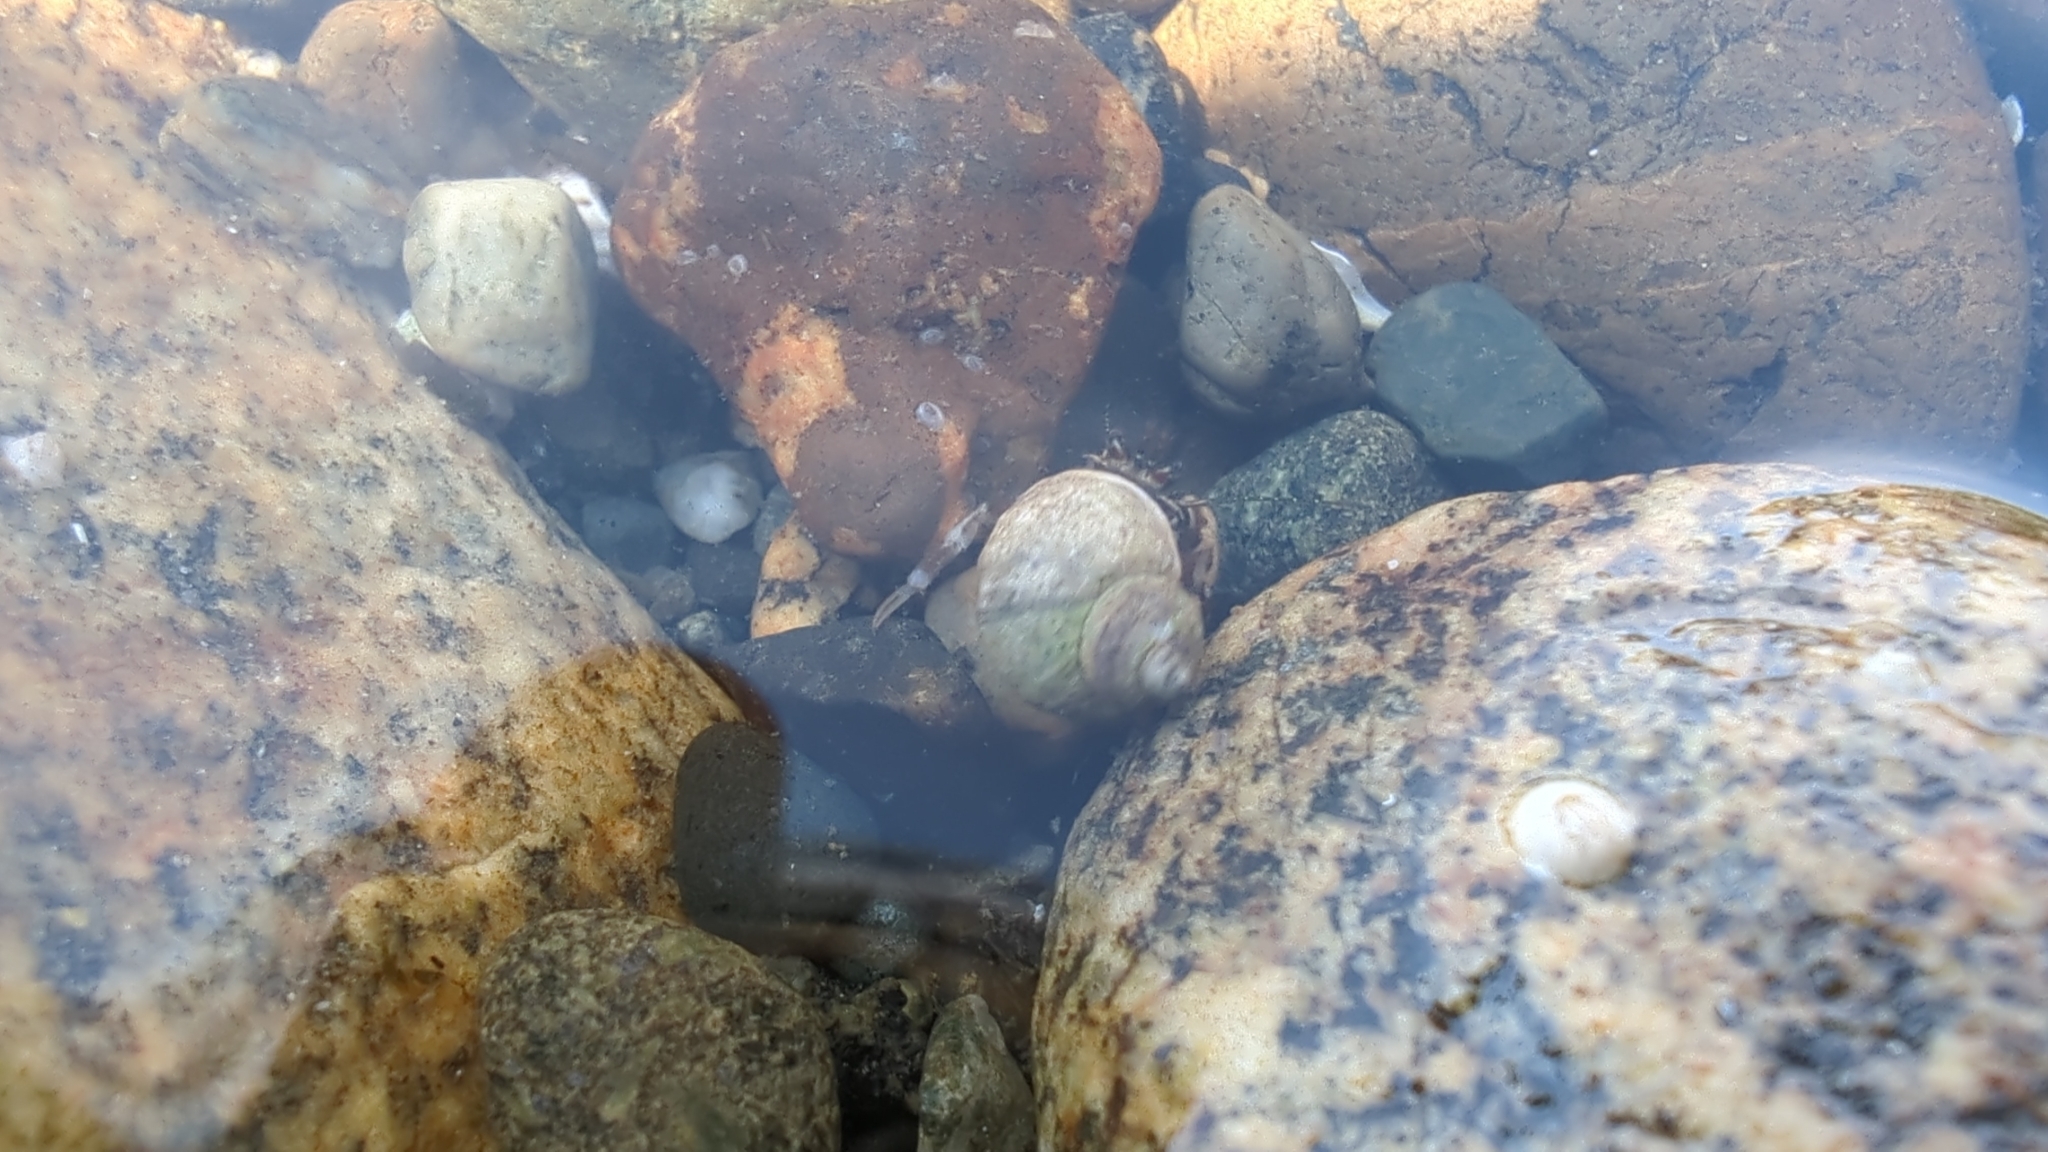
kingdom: Animalia
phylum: Arthropoda
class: Malacostraca
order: Decapoda
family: Paguridae
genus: Pagurus
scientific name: Pagurus hirsutiusculus
